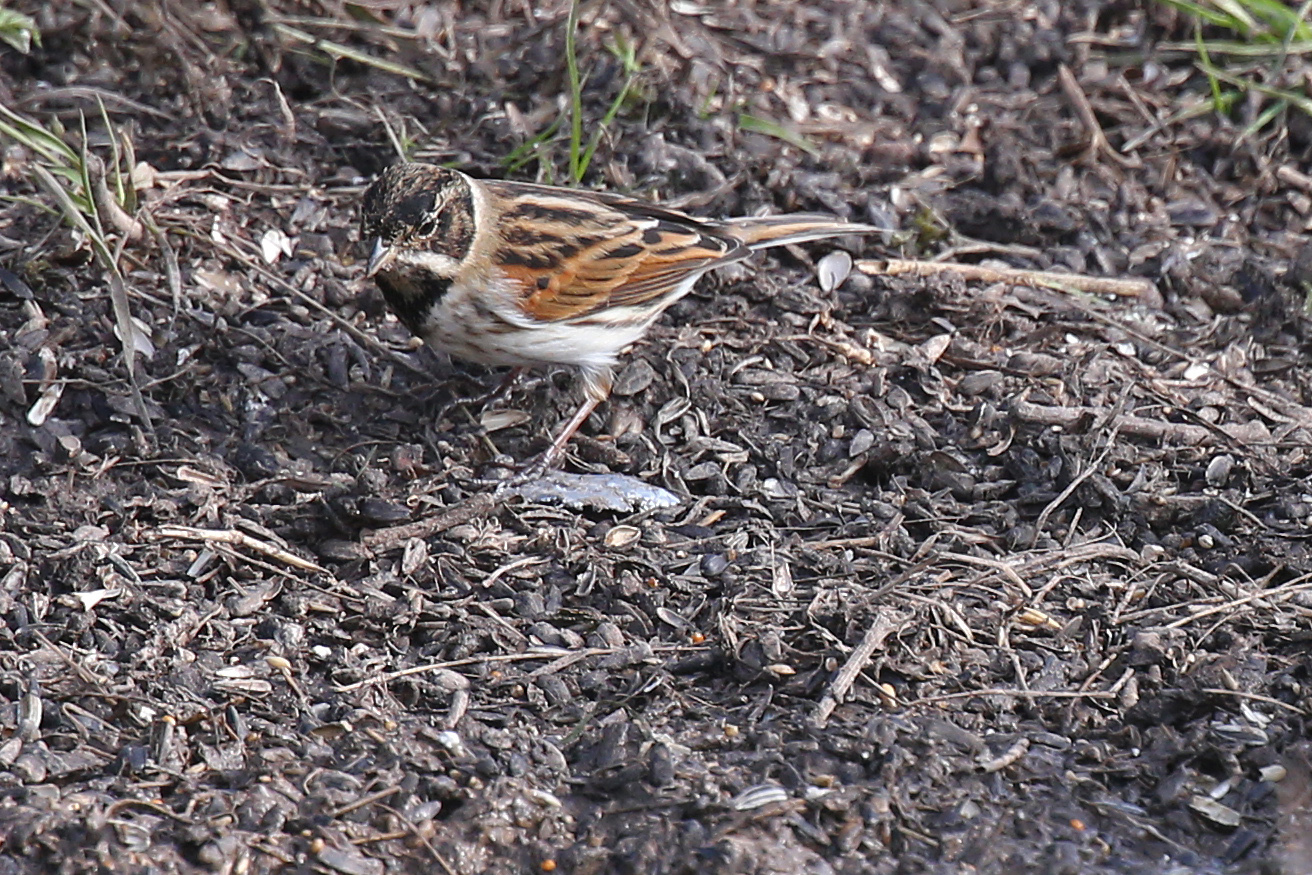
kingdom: Animalia
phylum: Chordata
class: Aves
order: Passeriformes
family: Emberizidae
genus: Emberiza
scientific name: Emberiza schoeniclus
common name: Reed bunting
